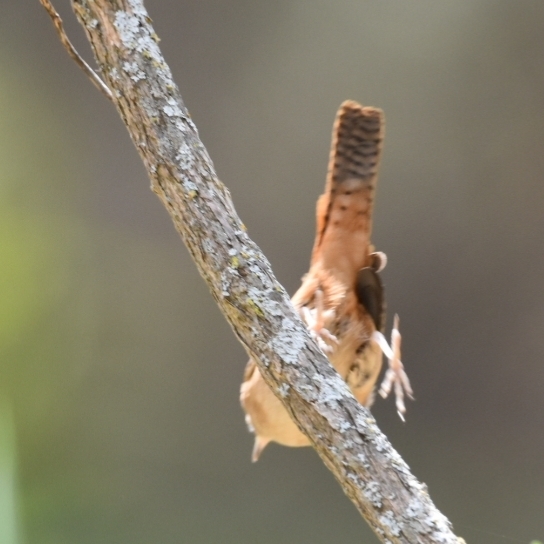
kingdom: Animalia
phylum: Chordata
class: Aves
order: Passeriformes
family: Troglodytidae
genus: Troglodytes
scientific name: Troglodytes aedon
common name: House wren
